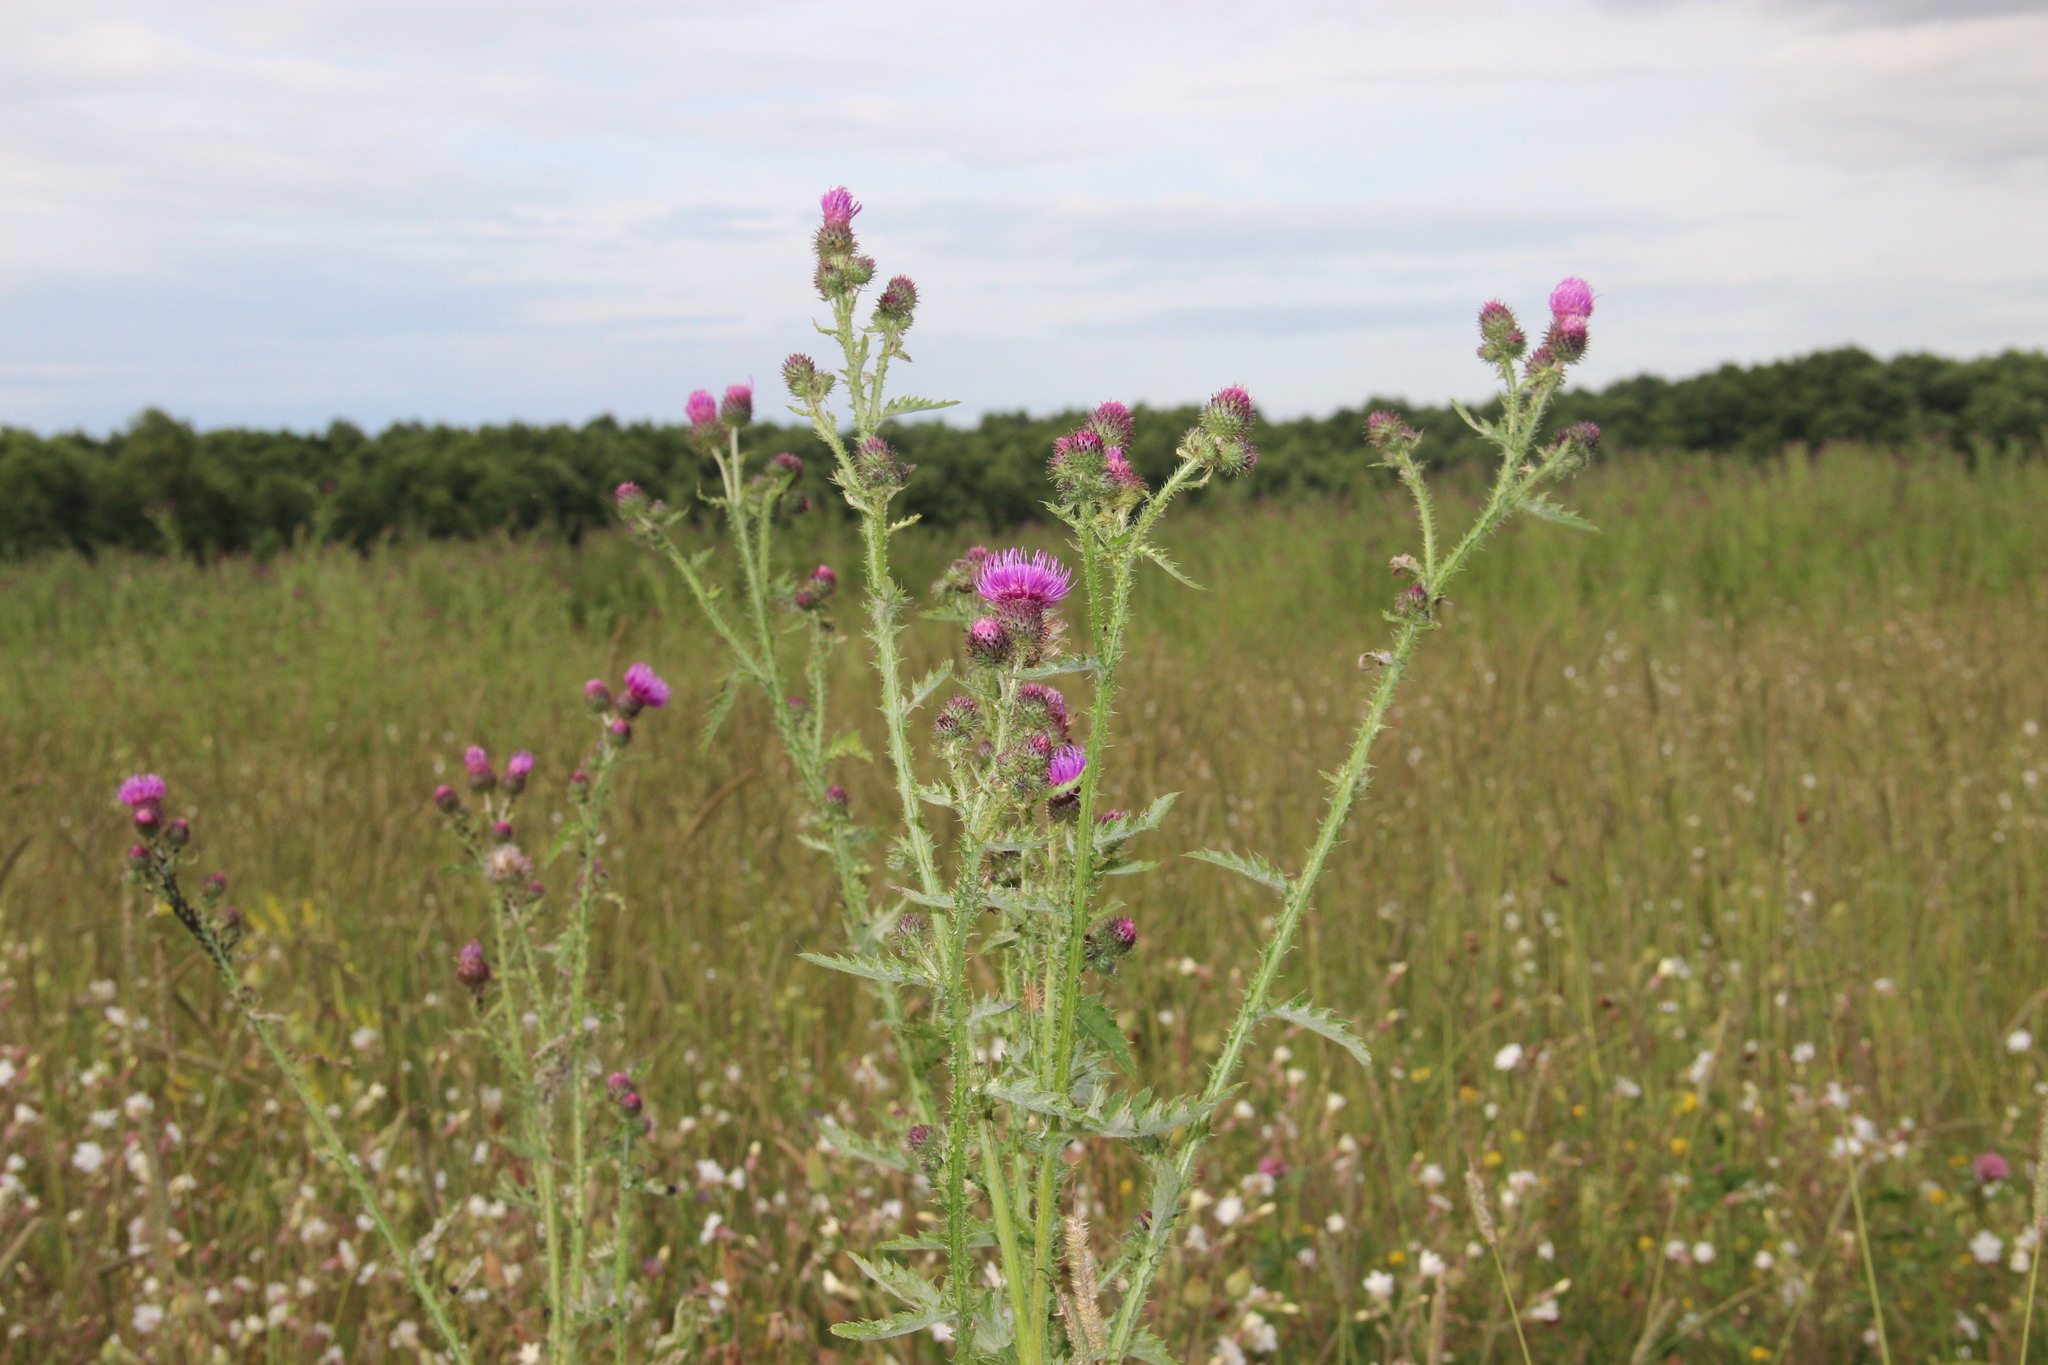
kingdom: Plantae
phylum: Tracheophyta
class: Magnoliopsida
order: Asterales
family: Asteraceae
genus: Carduus
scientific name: Carduus crispus
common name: Welted thistle
